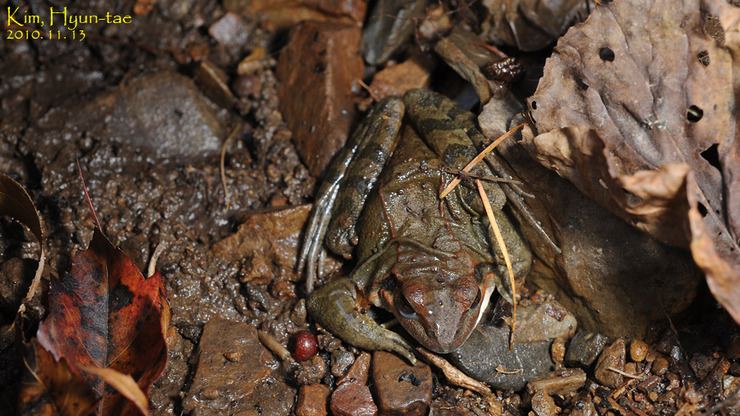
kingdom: Animalia
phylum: Chordata
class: Amphibia
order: Anura
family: Ranidae
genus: Rana
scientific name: Rana uenoi
